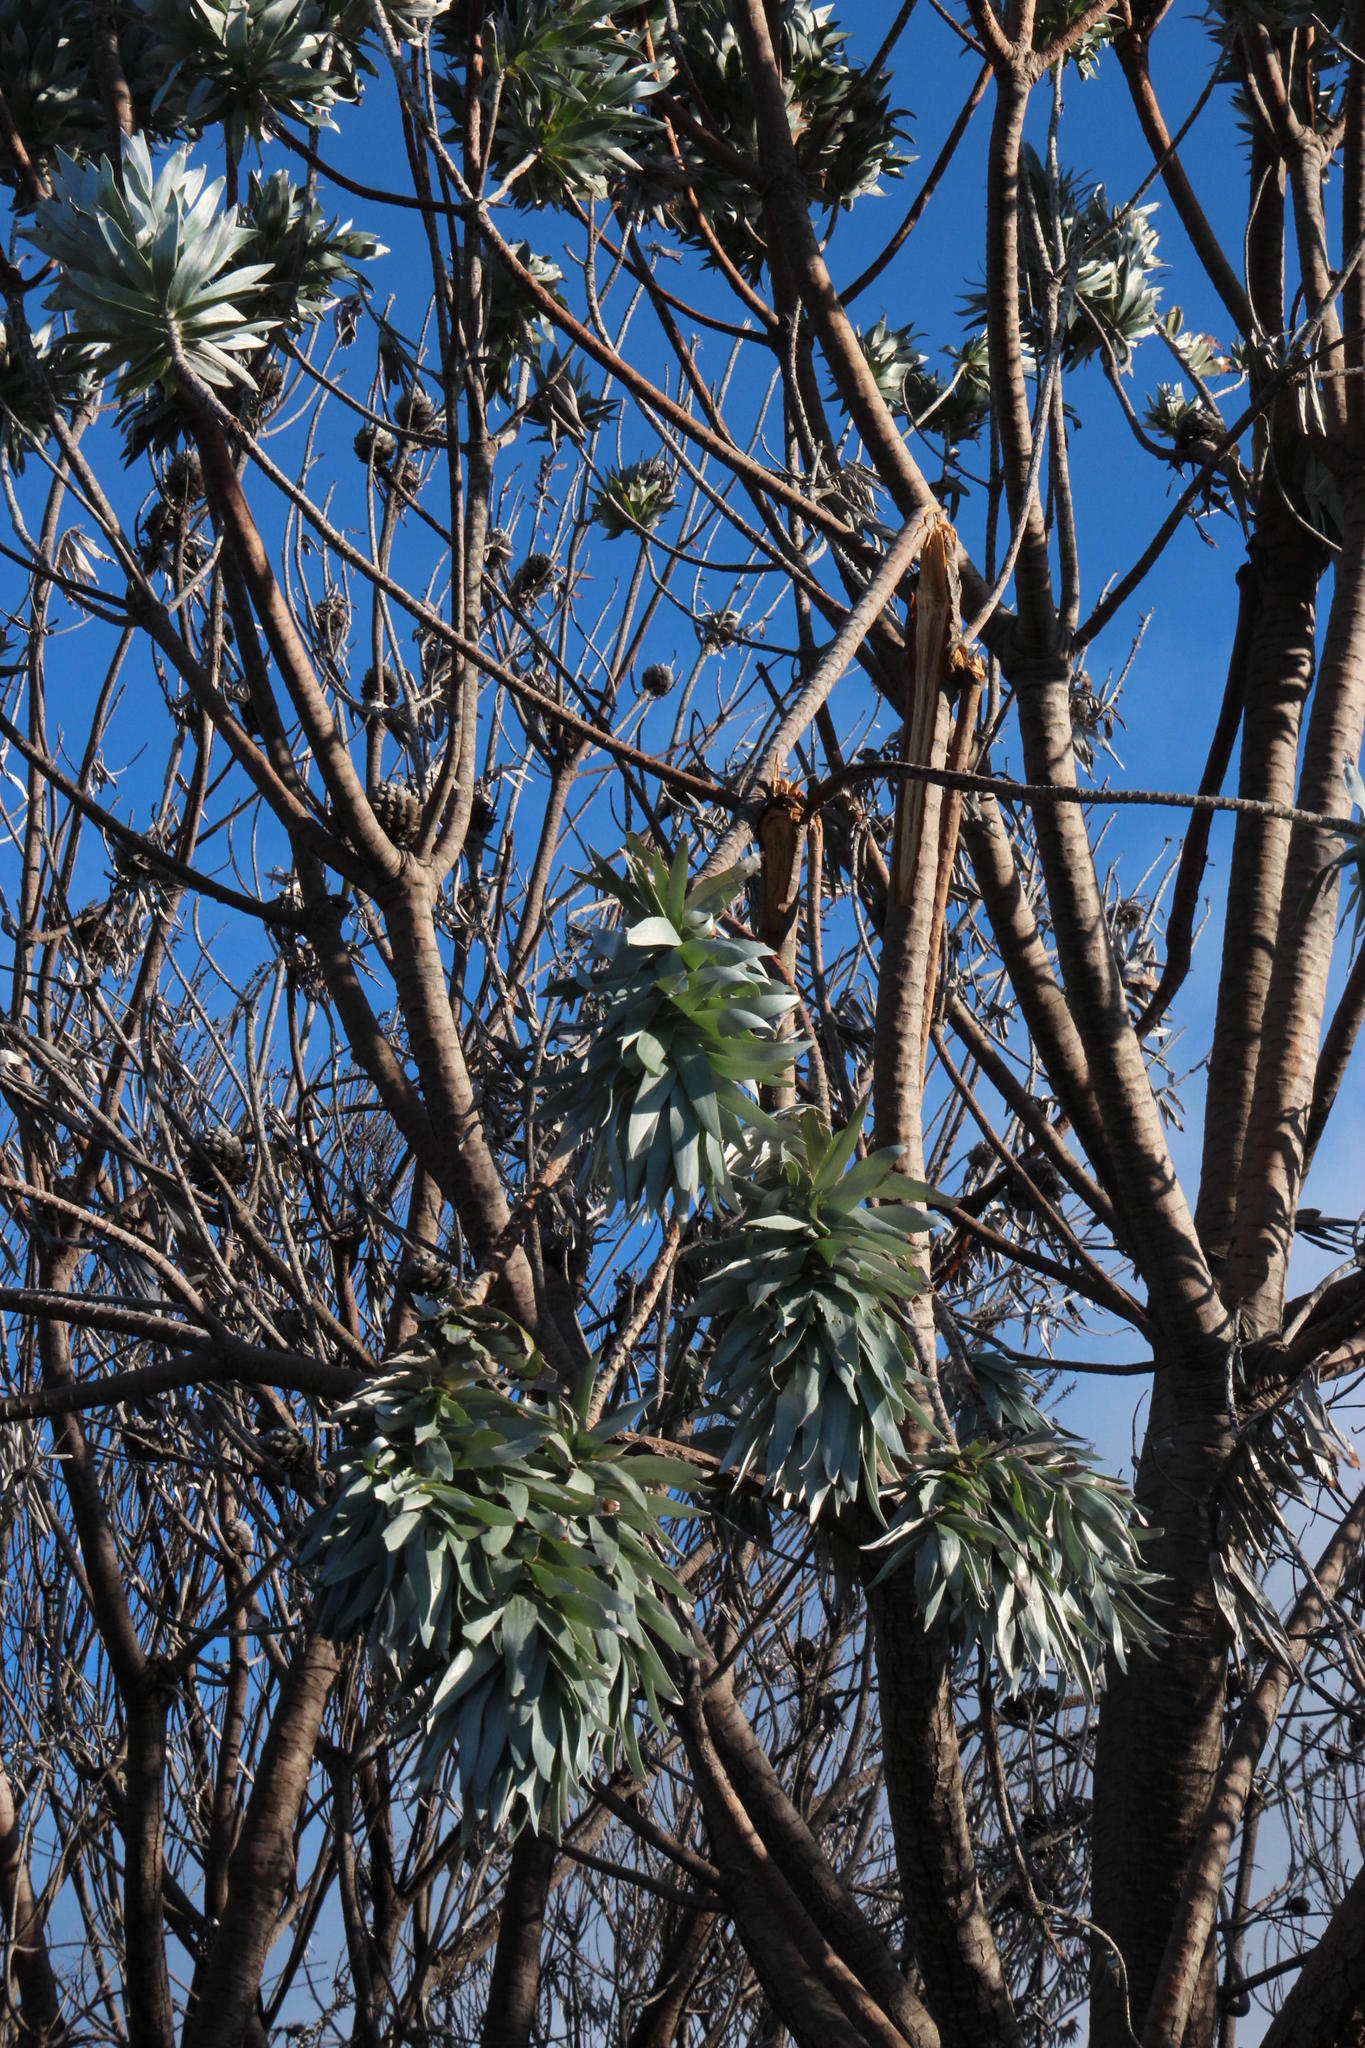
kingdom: Animalia
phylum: Chordata
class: Mammalia
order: Primates
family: Cercopithecidae
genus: Papio
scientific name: Papio ursinus
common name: Chacma baboon
